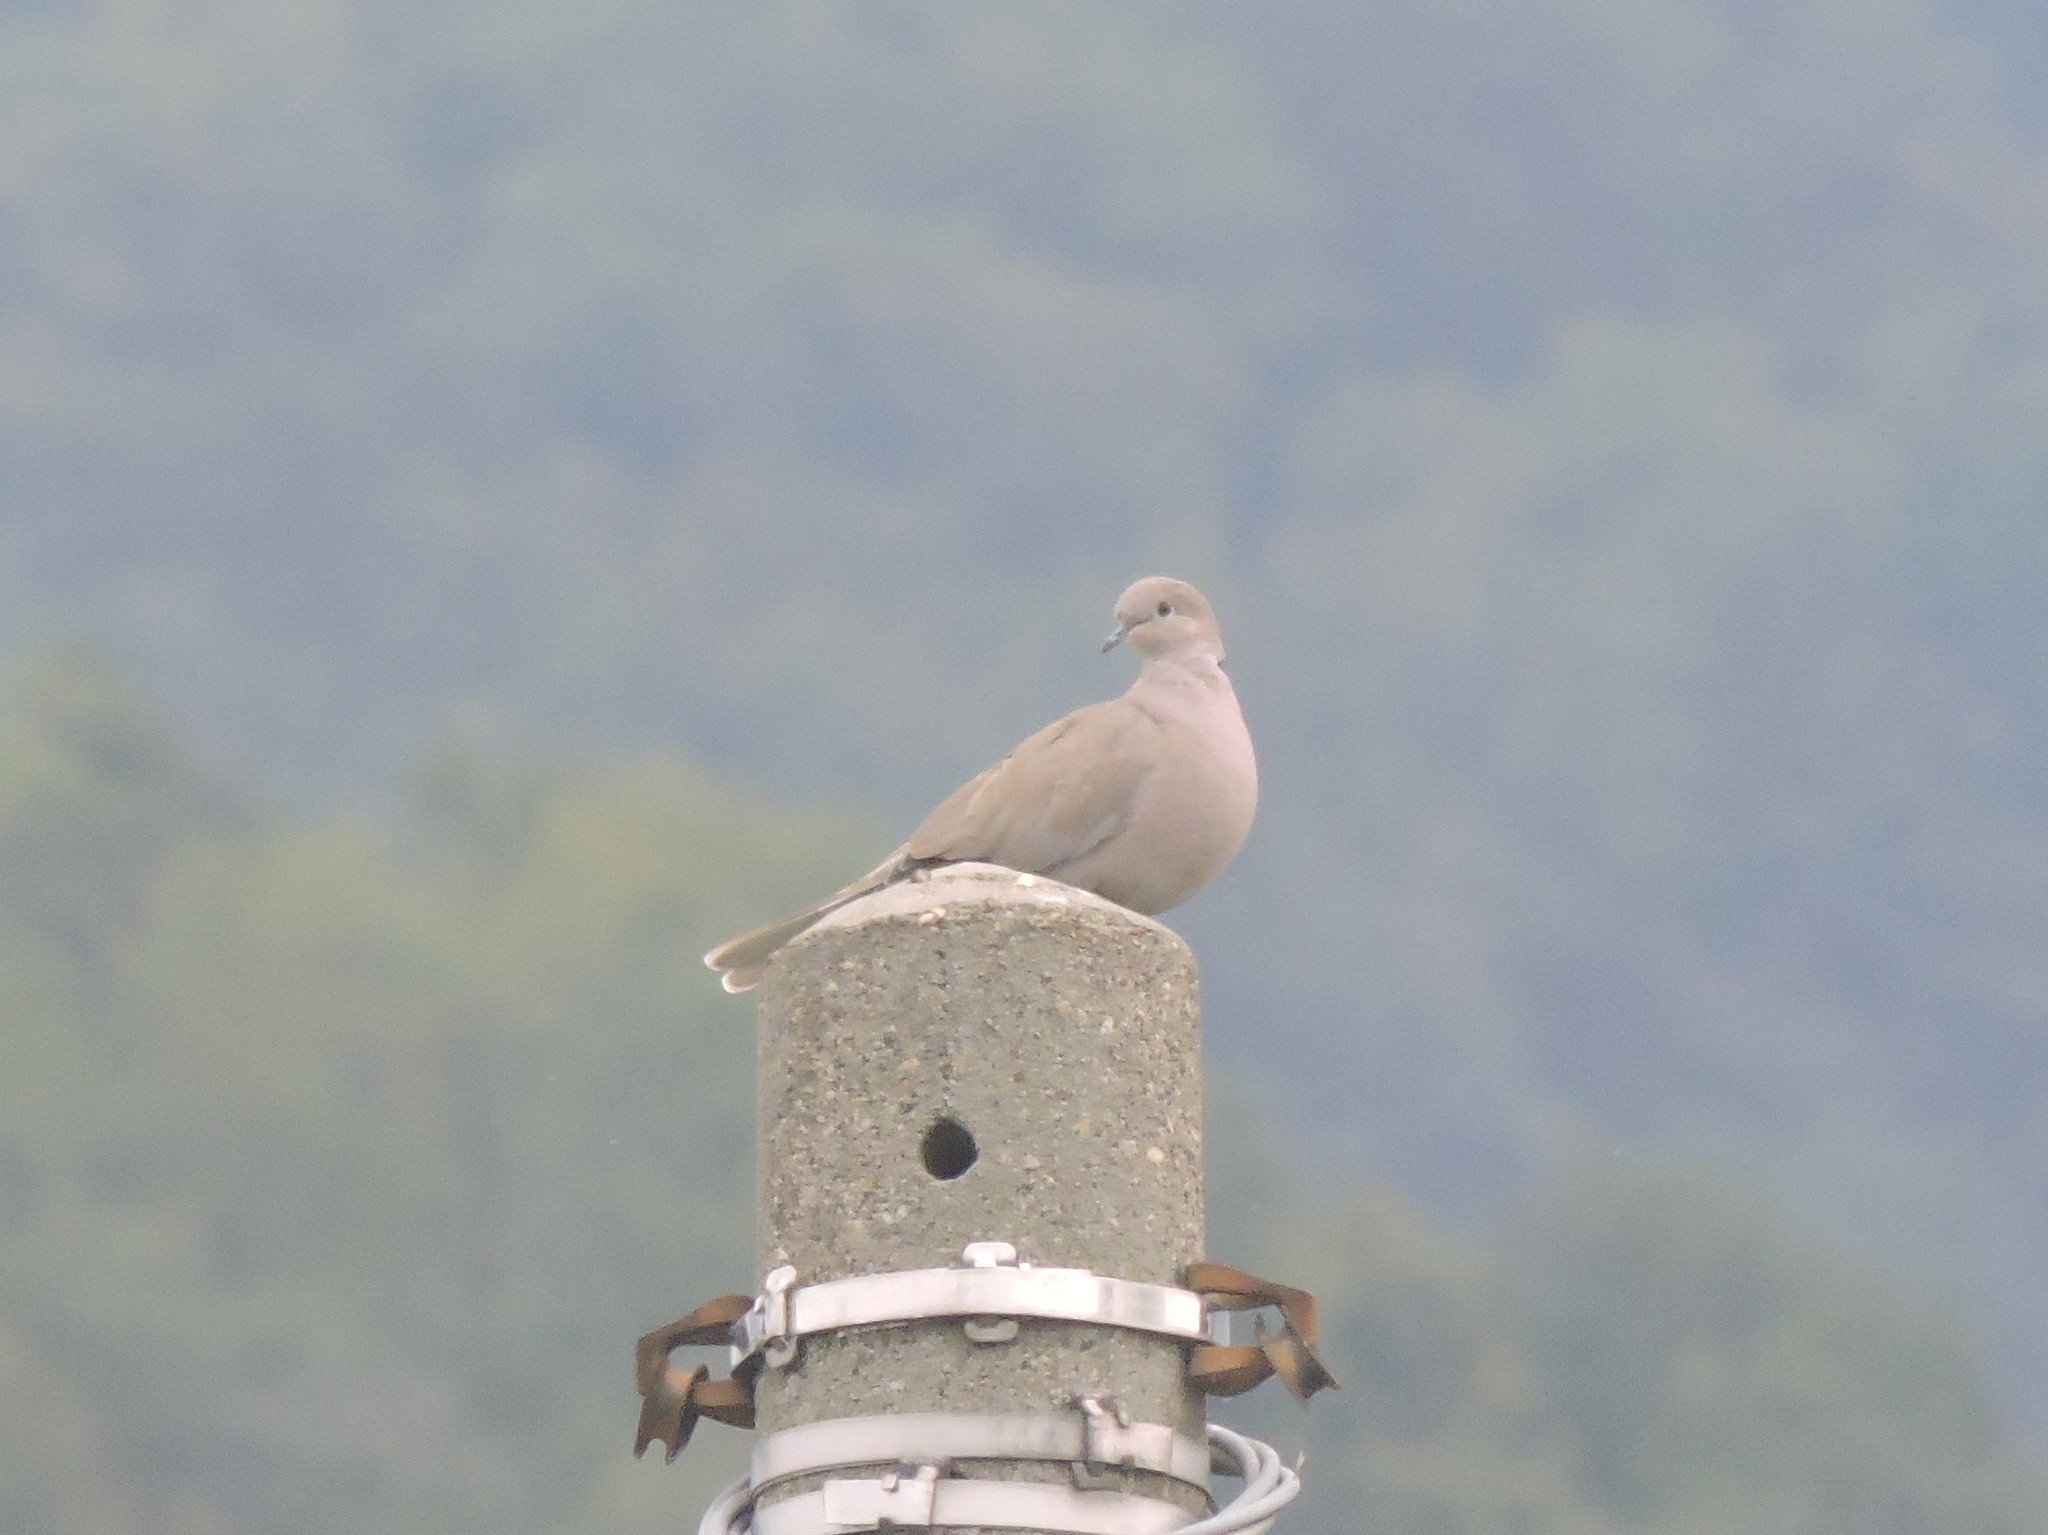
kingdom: Animalia
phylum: Chordata
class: Aves
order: Columbiformes
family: Columbidae
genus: Streptopelia
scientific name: Streptopelia decaocto
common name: Eurasian collared dove
